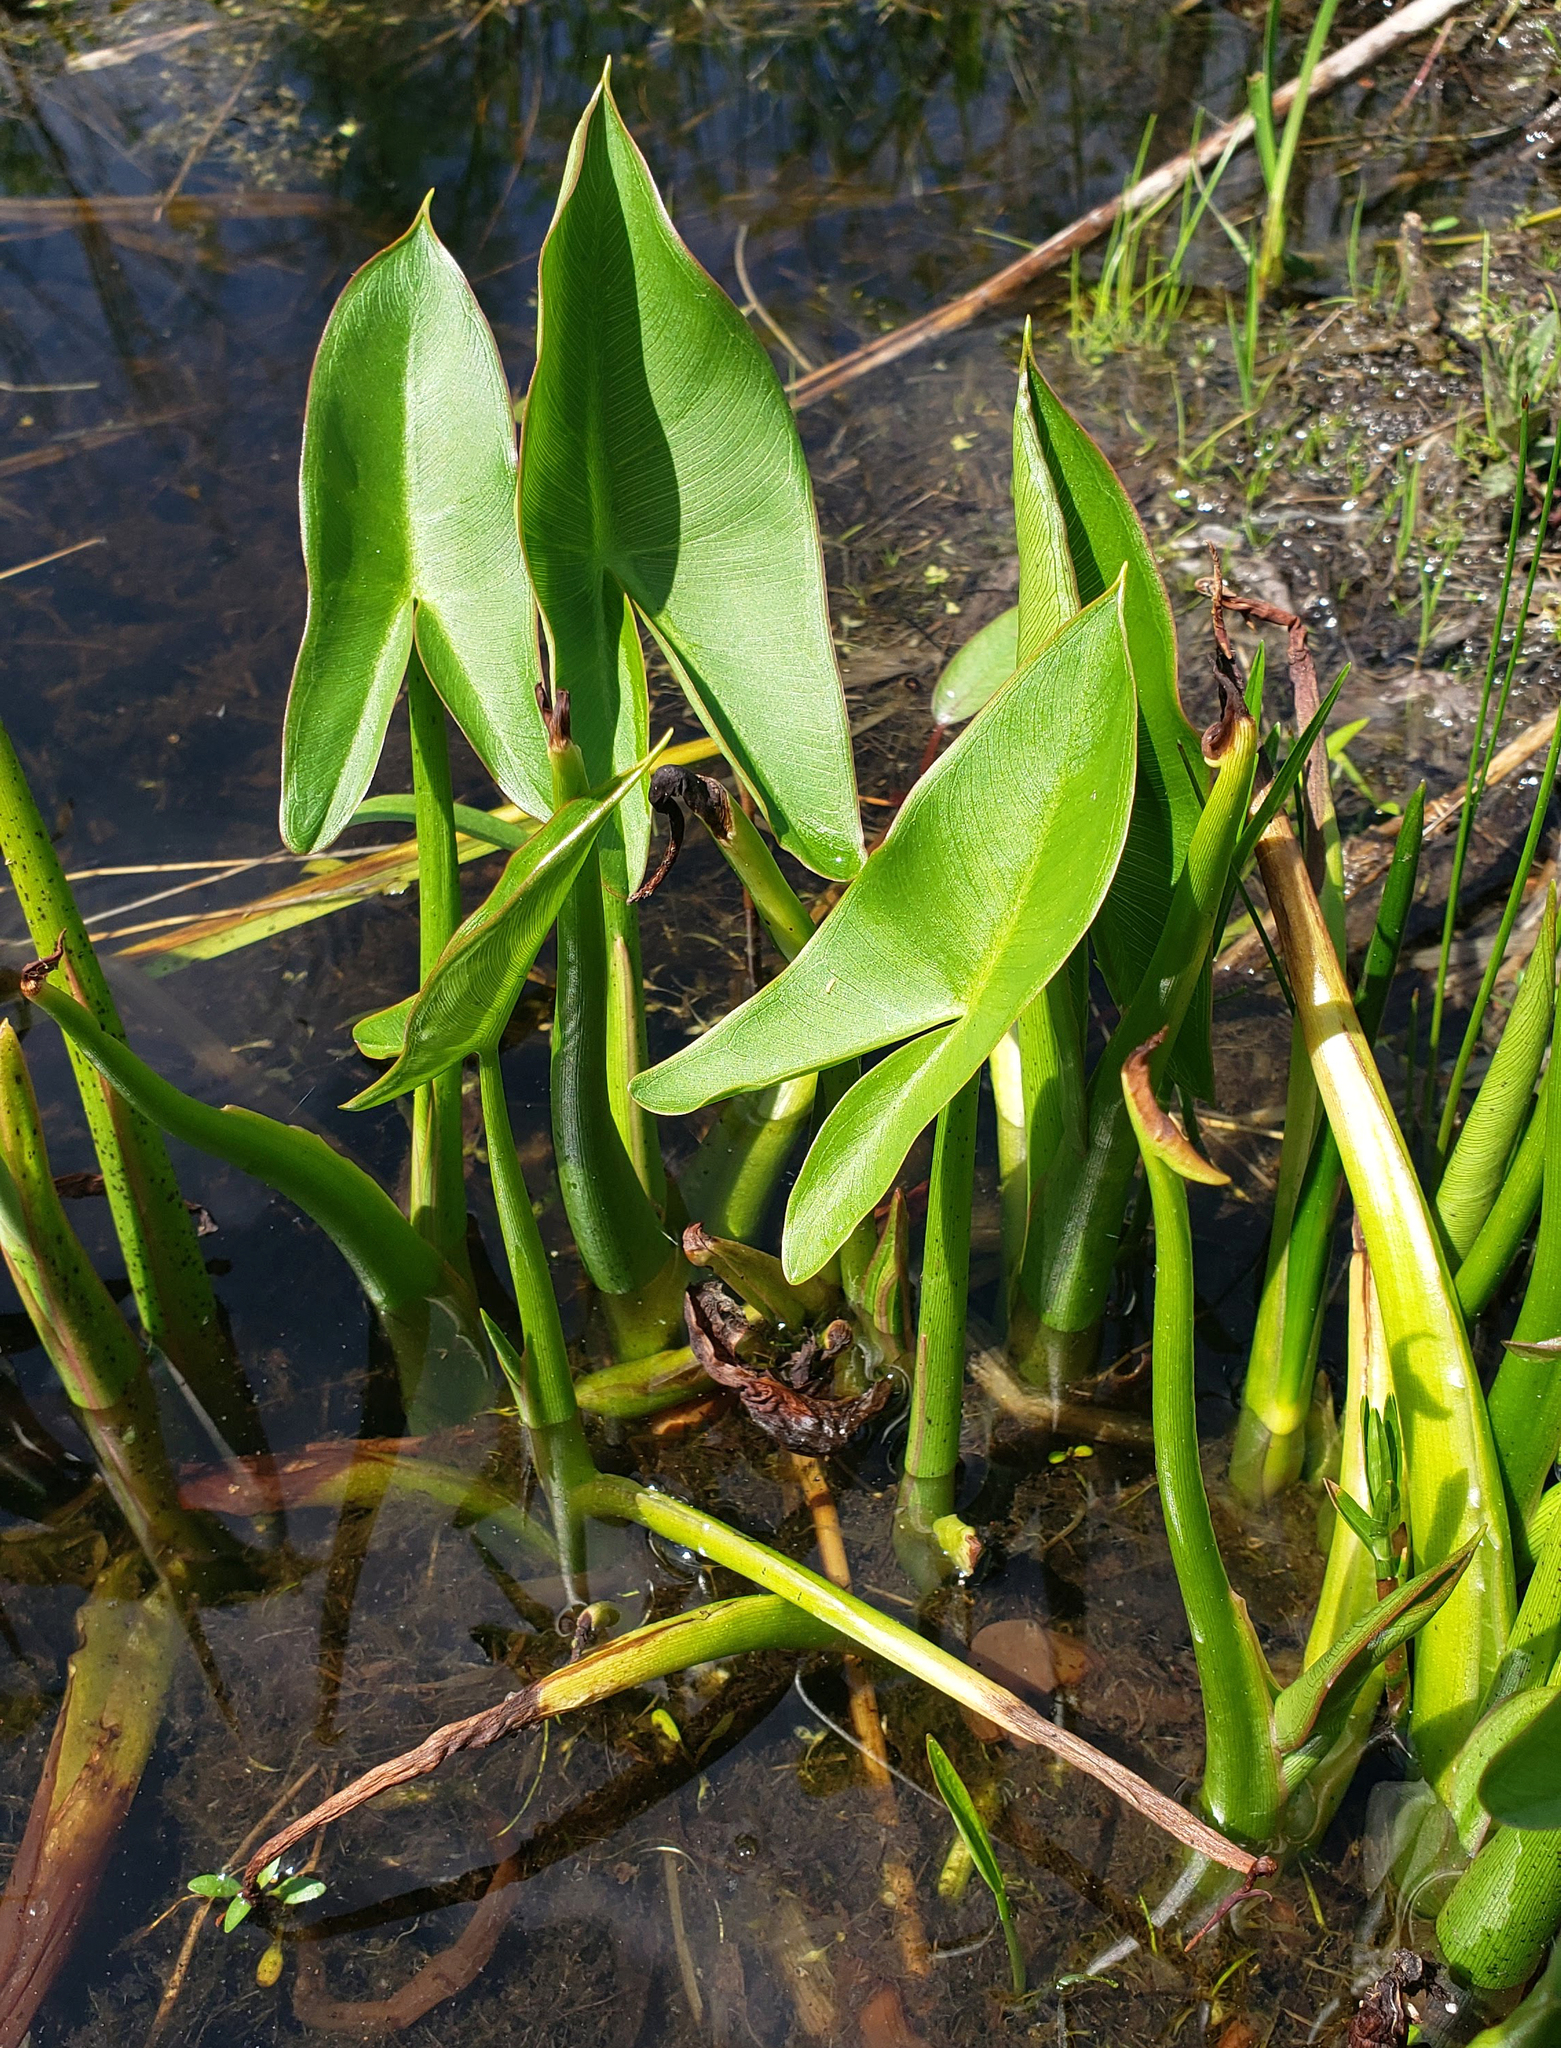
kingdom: Plantae
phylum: Tracheophyta
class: Liliopsida
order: Alismatales
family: Araceae
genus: Peltandra
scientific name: Peltandra virginica
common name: Arrow arum
